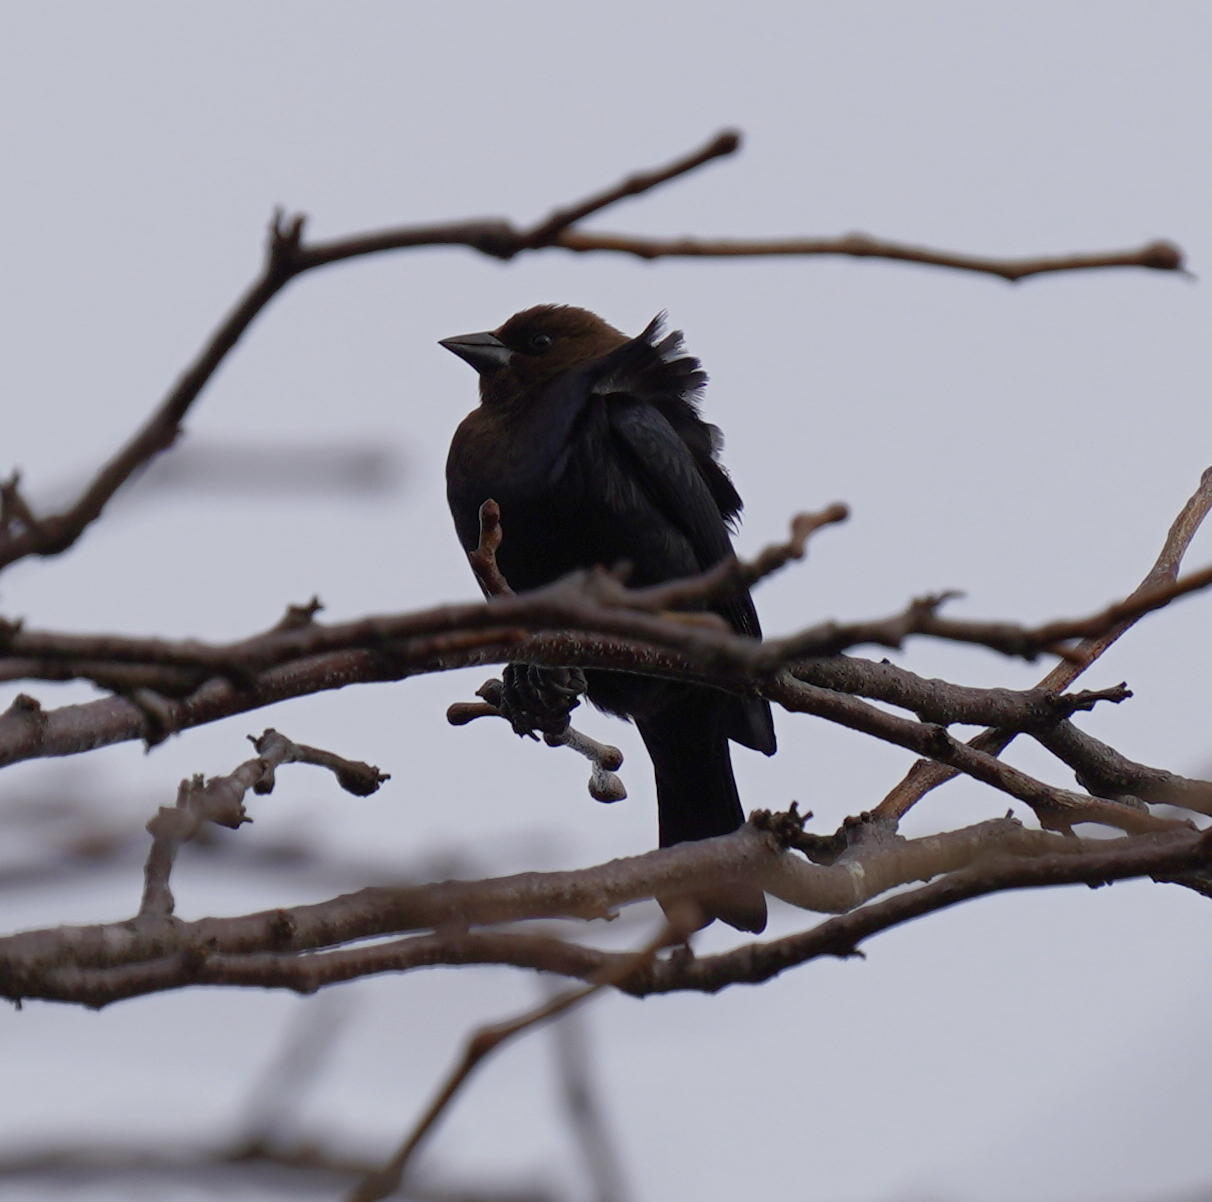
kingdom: Animalia
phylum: Chordata
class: Aves
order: Passeriformes
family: Icteridae
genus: Molothrus
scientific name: Molothrus ater
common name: Brown-headed cowbird
